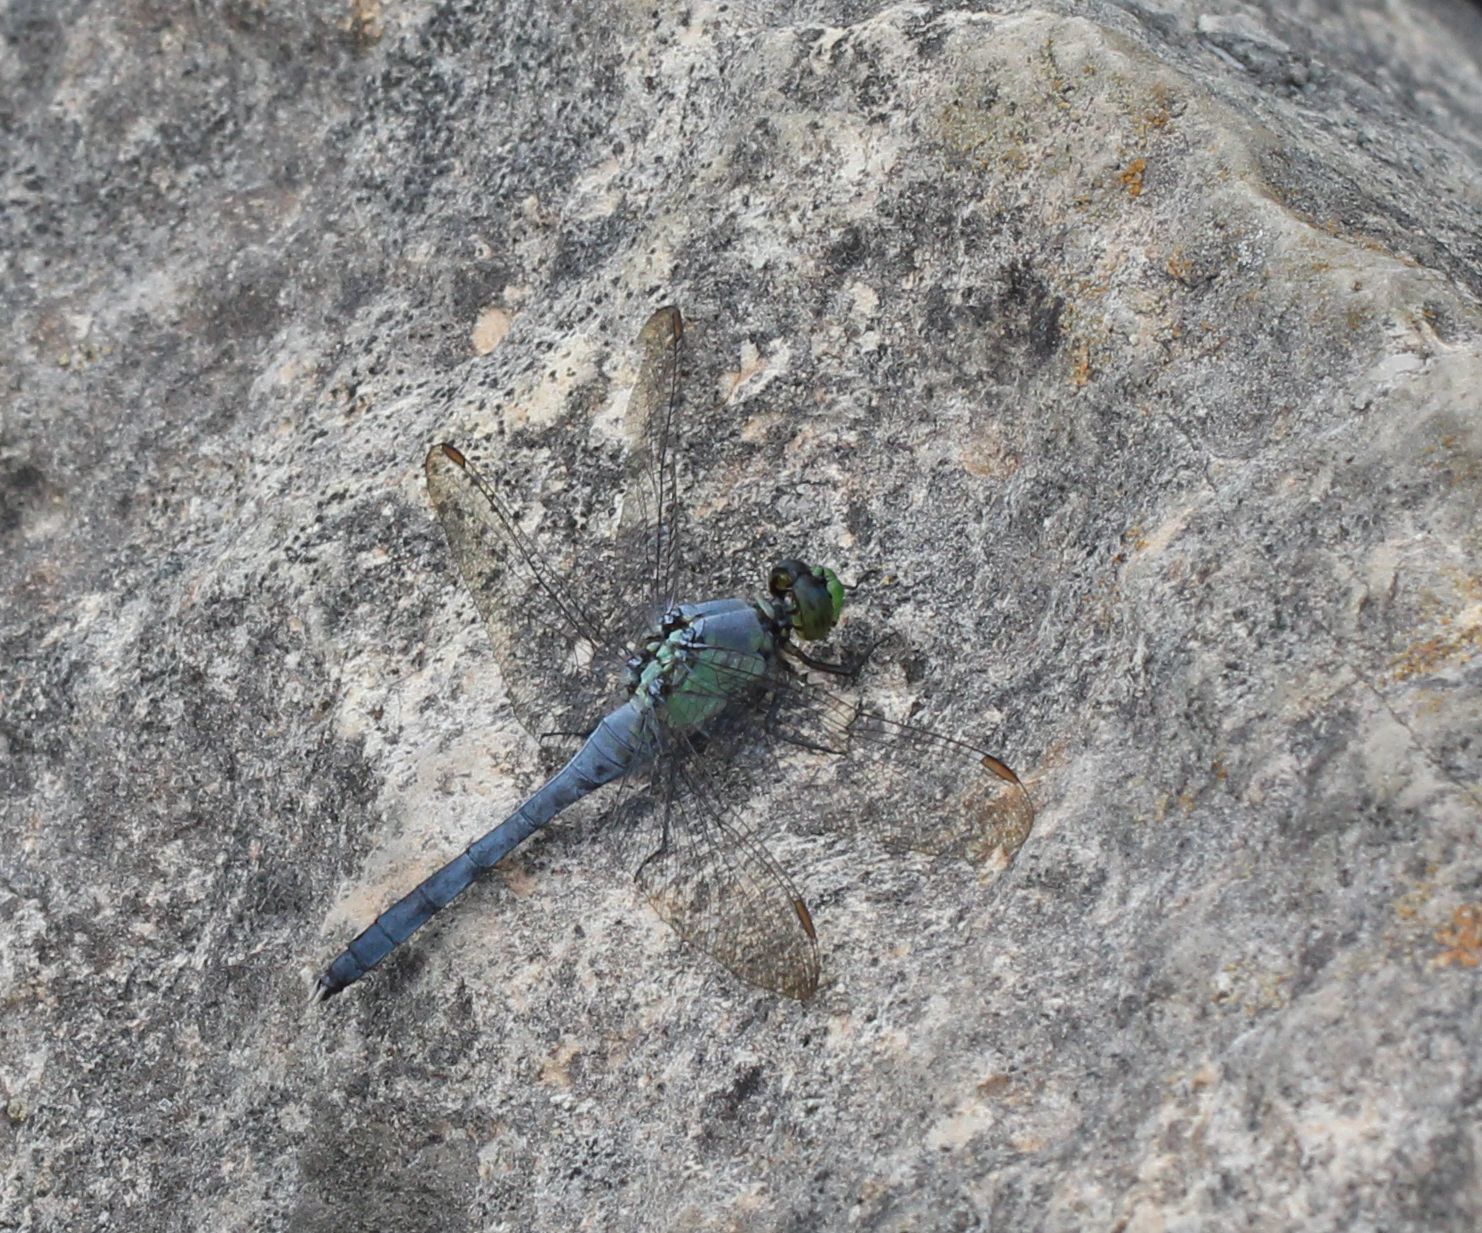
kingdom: Animalia
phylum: Arthropoda
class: Insecta
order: Odonata
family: Libellulidae
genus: Erythemis
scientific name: Erythemis simplicicollis
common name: Eastern pondhawk
